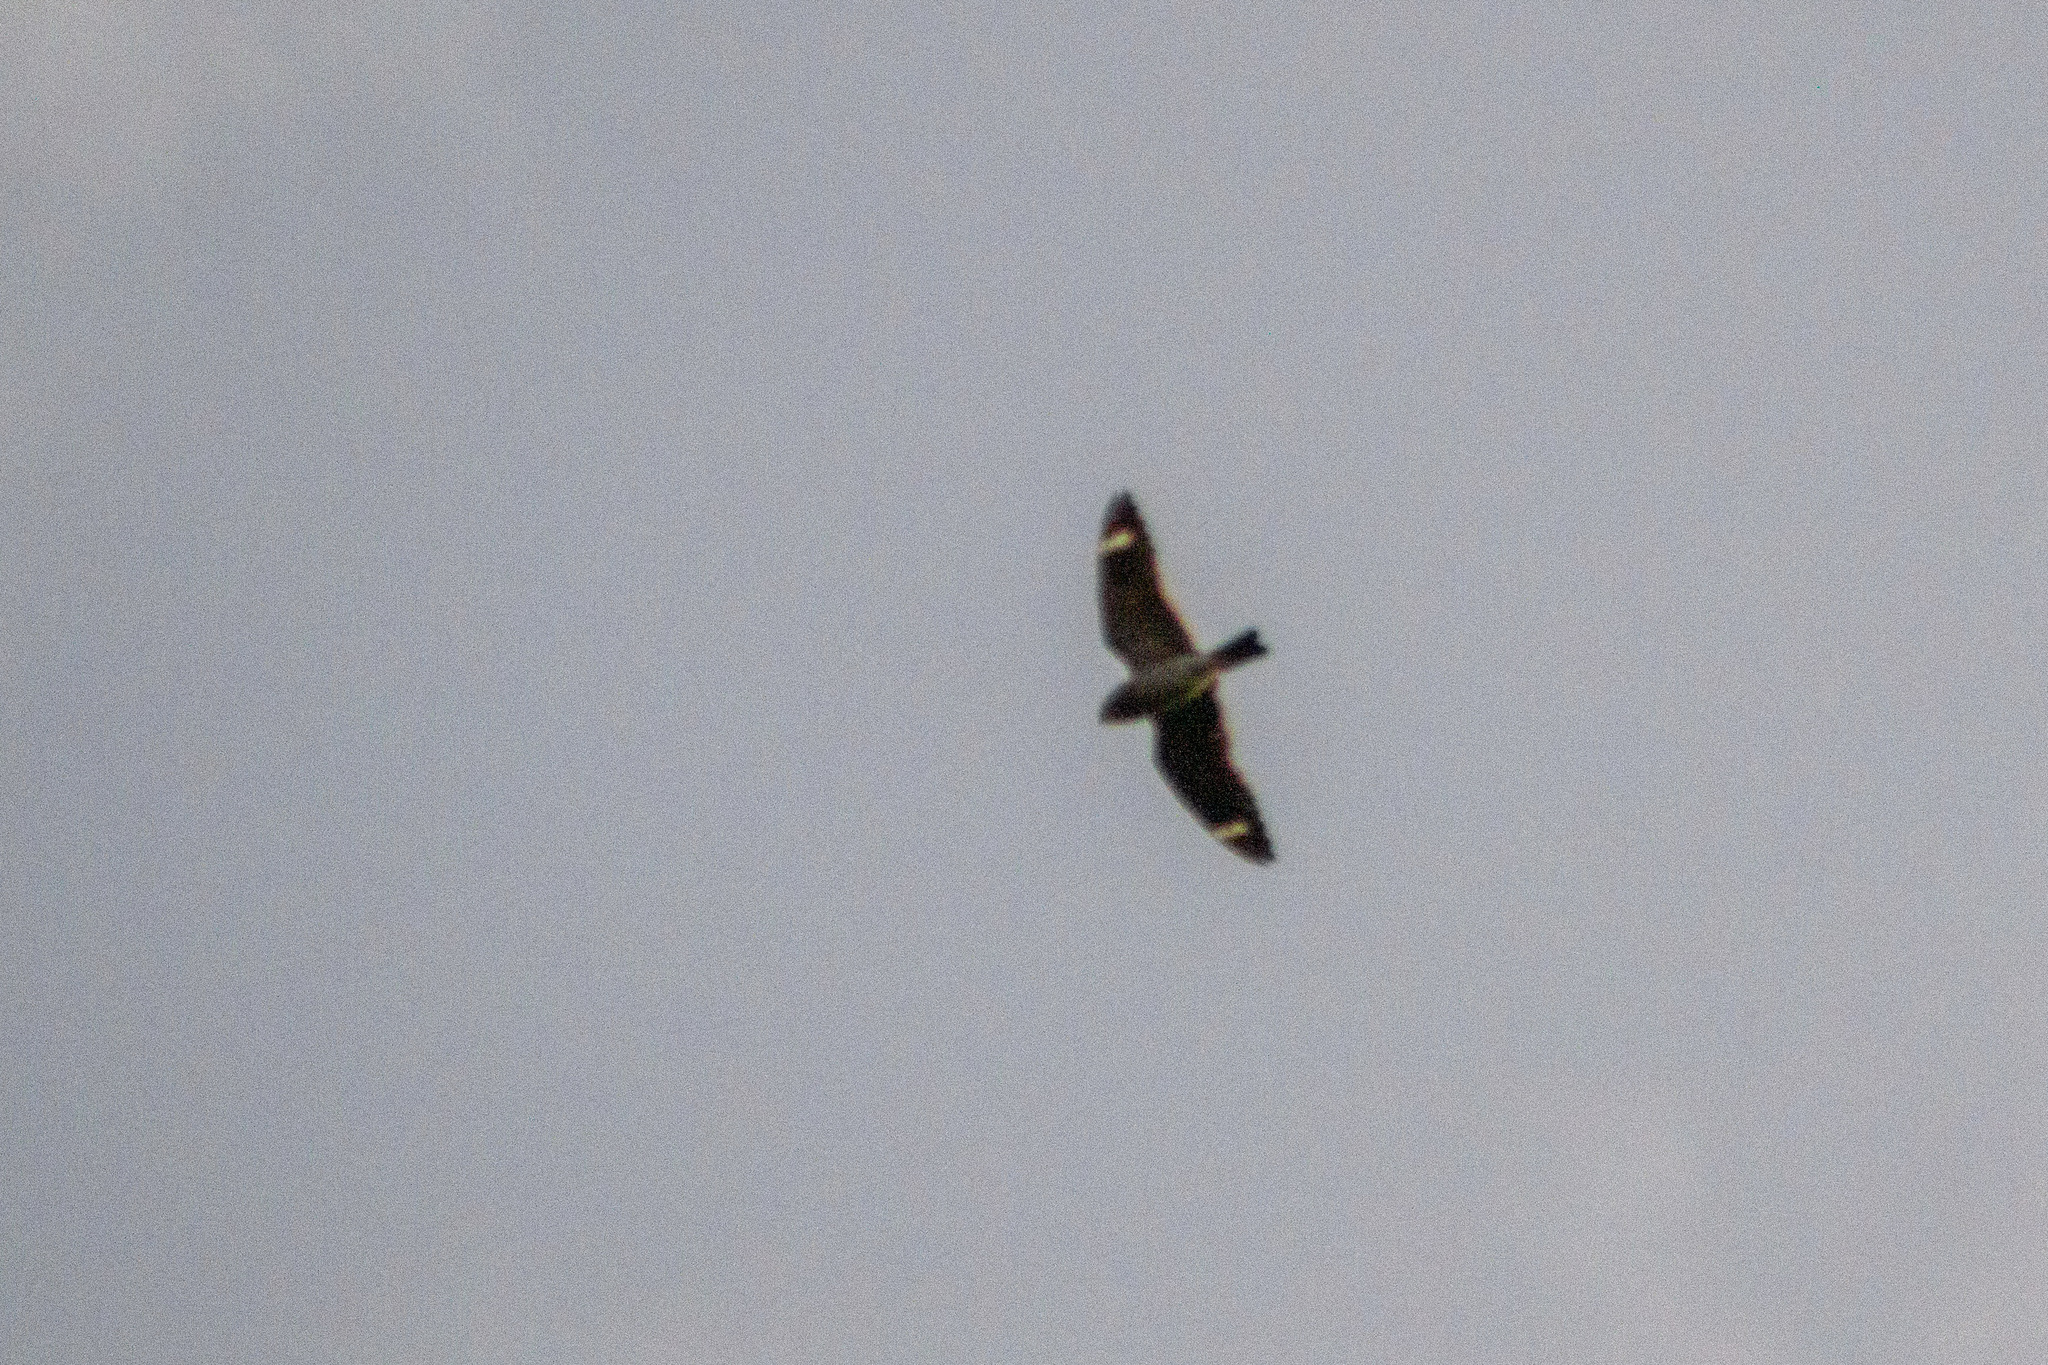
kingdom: Animalia
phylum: Chordata
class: Aves
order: Caprimulgiformes
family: Caprimulgidae
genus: Chordeiles
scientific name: Chordeiles pusillus
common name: Least nighthawk
